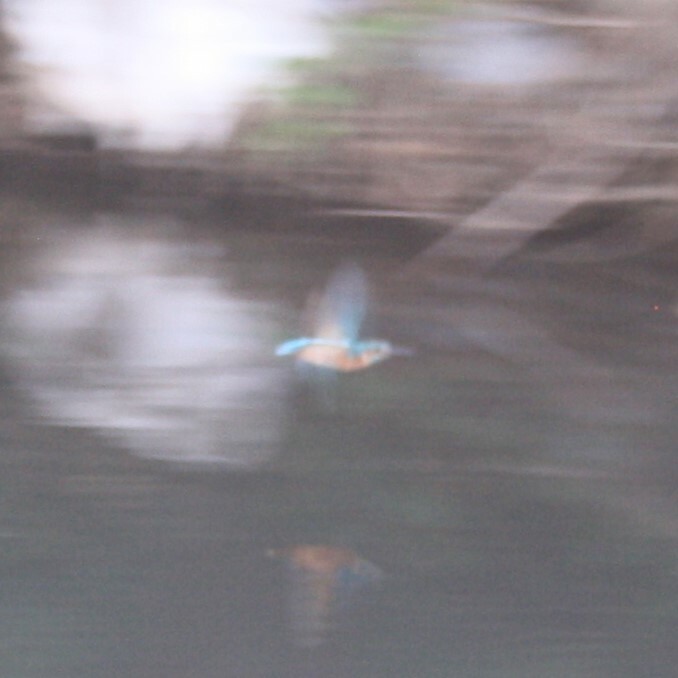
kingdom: Animalia
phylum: Chordata
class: Aves
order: Coraciiformes
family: Alcedinidae
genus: Alcedo
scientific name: Alcedo atthis
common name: Common kingfisher
